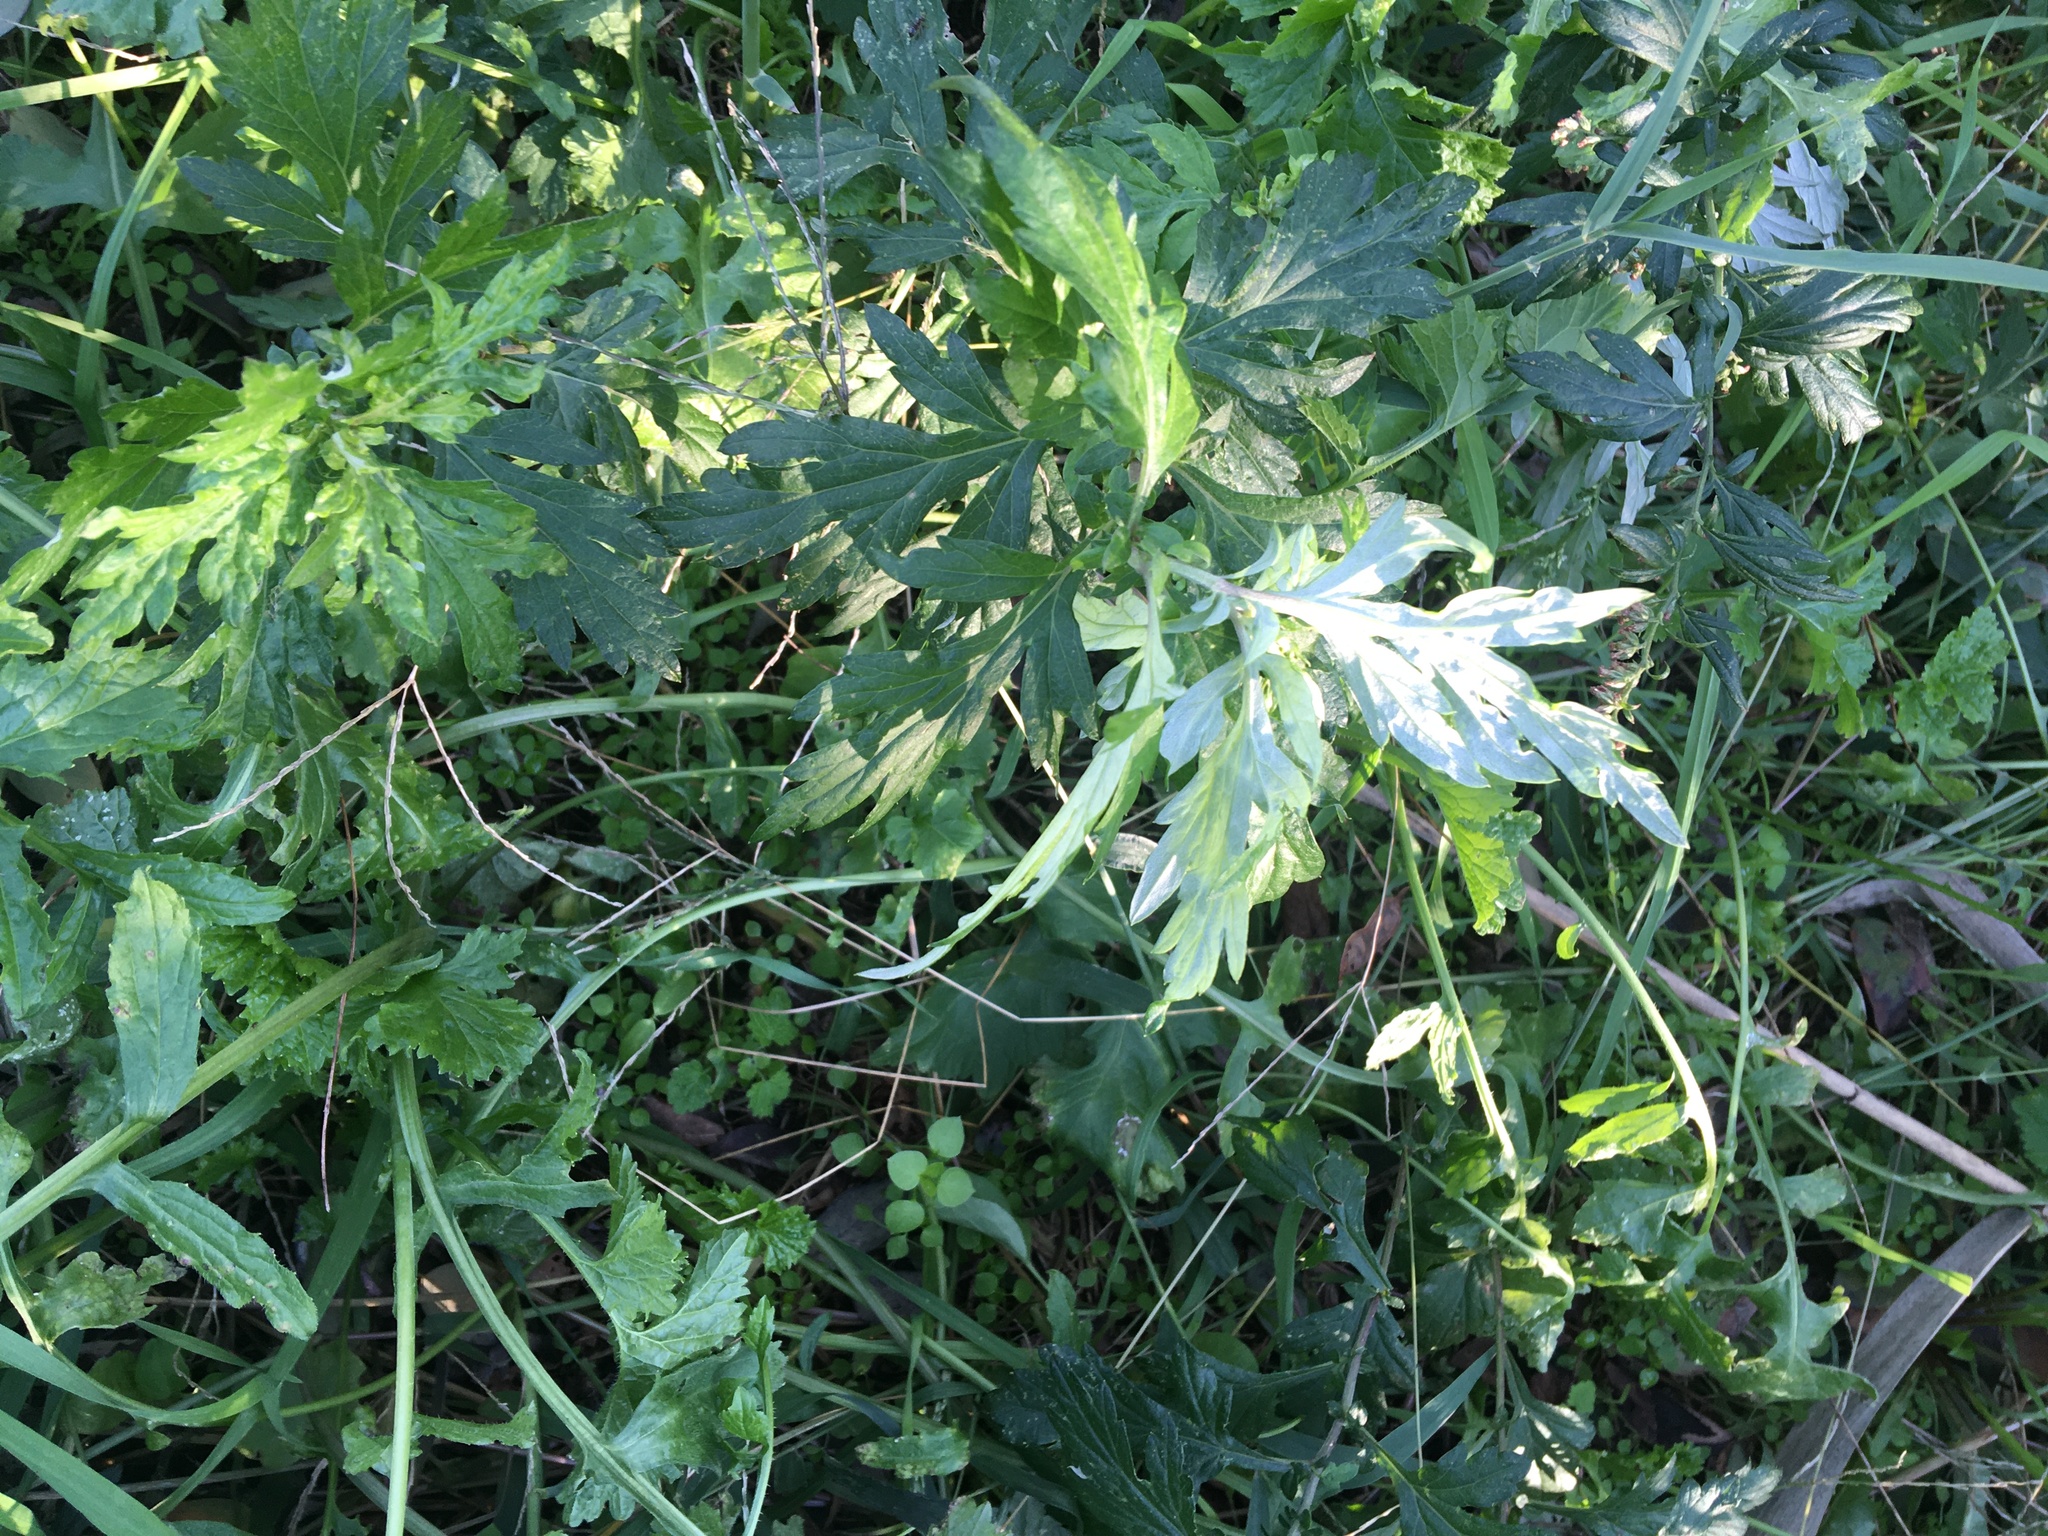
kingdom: Plantae
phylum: Tracheophyta
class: Magnoliopsida
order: Asterales
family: Asteraceae
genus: Artemisia
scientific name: Artemisia vulgaris
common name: Mugwort
